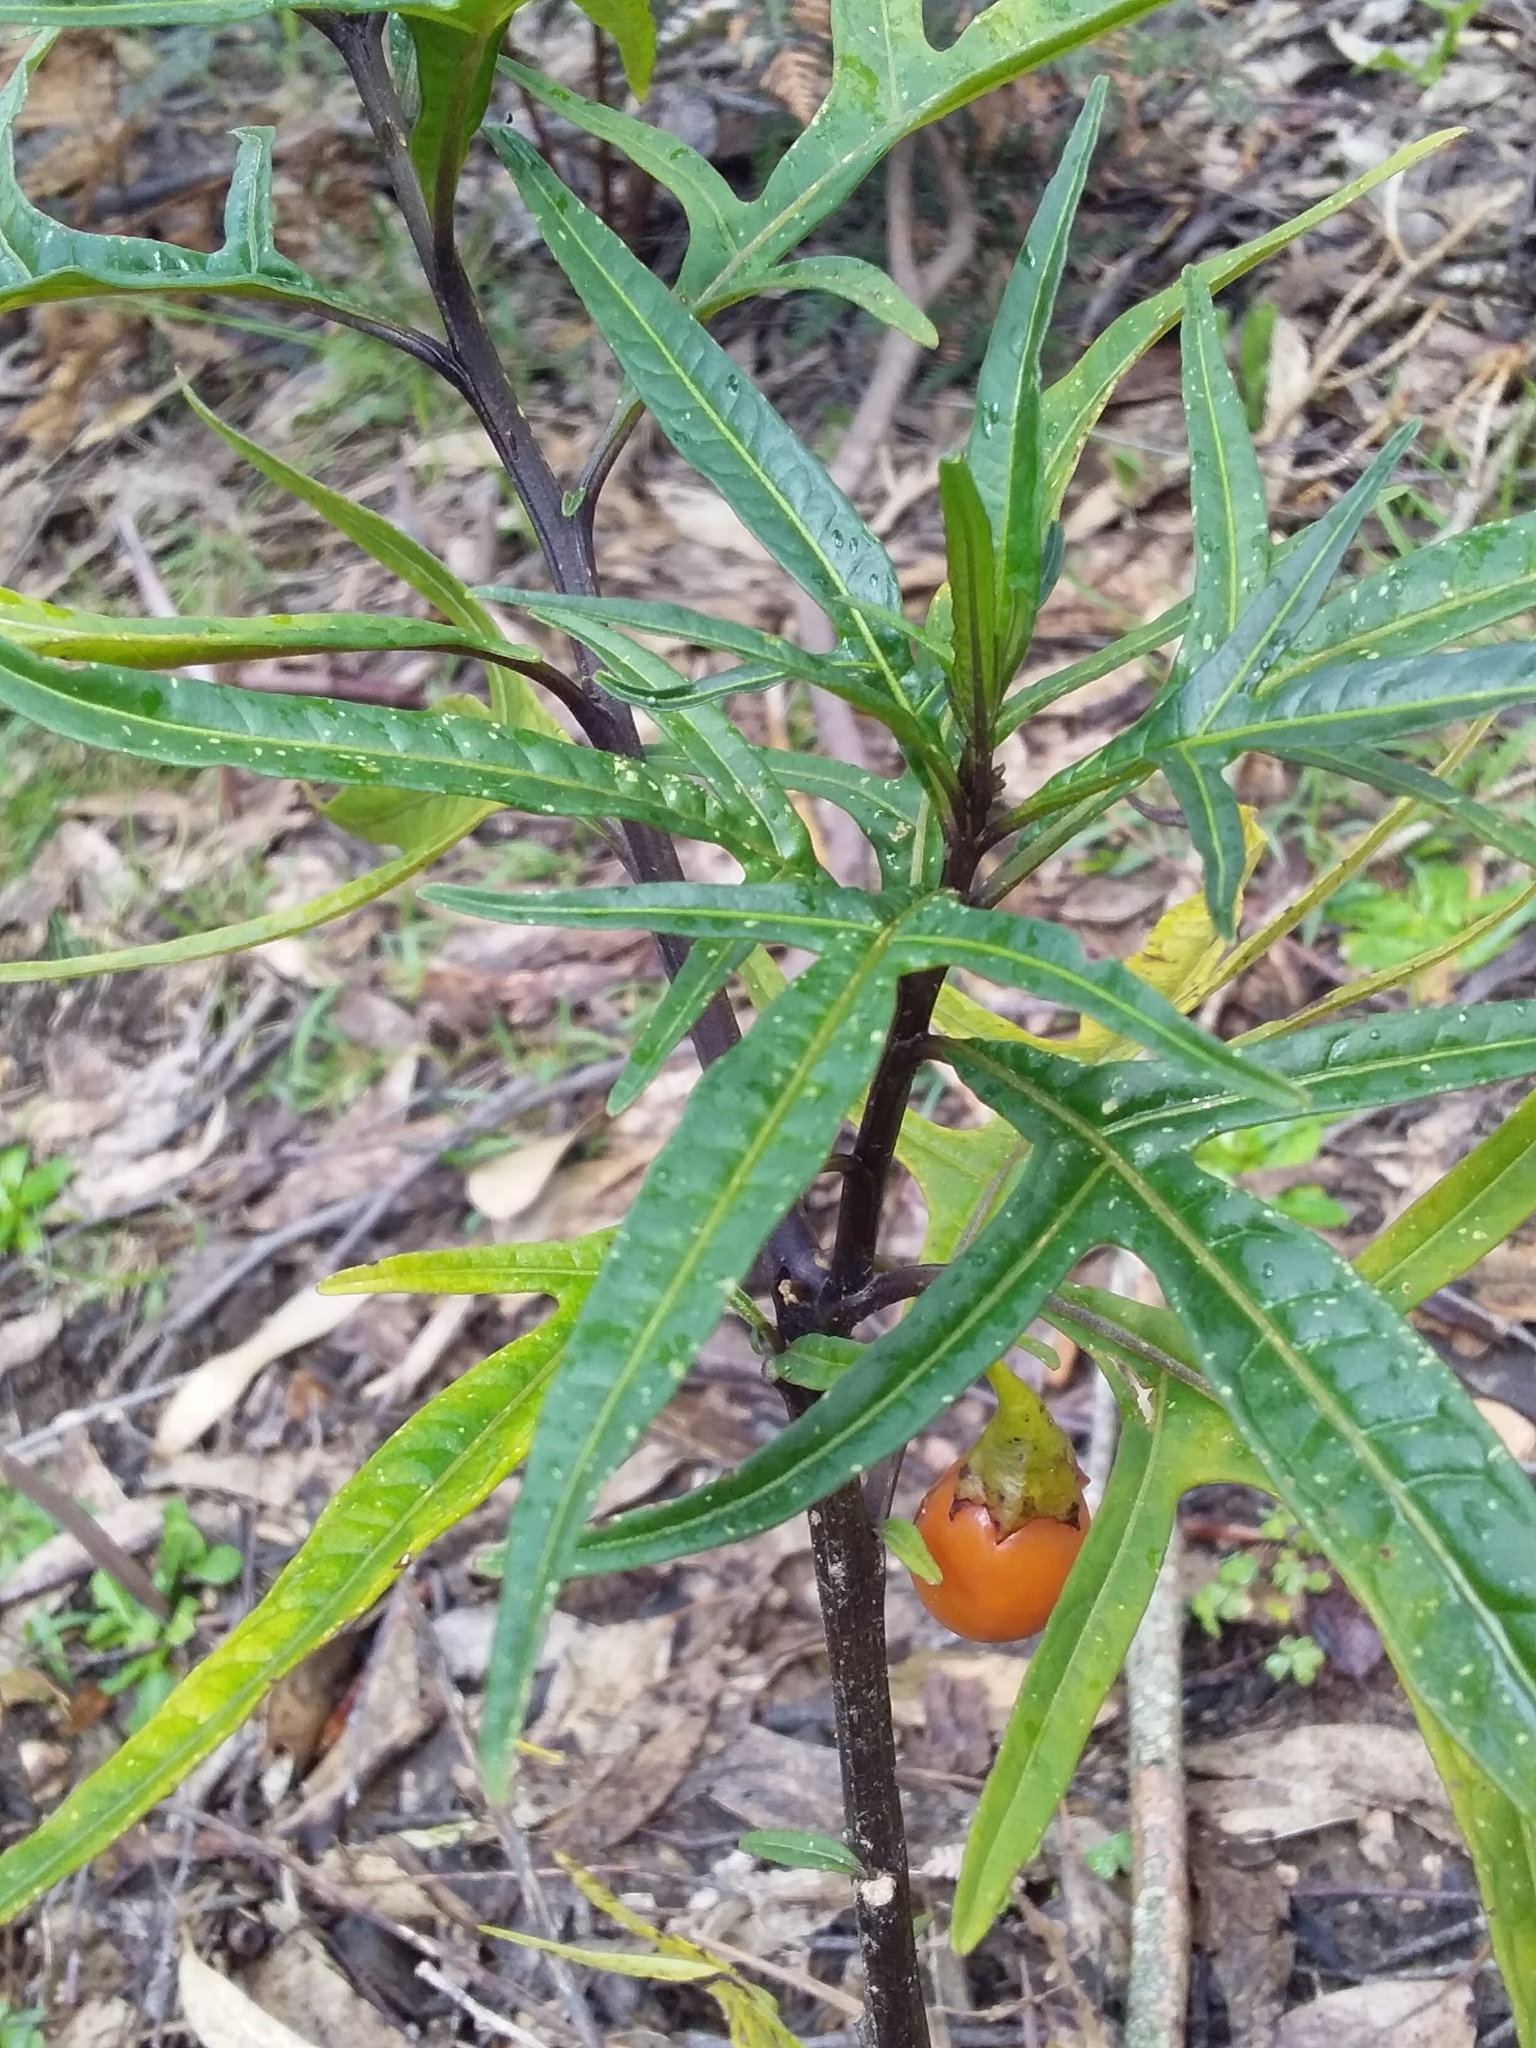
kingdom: Plantae
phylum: Tracheophyta
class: Magnoliopsida
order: Solanales
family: Solanaceae
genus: Solanum
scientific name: Solanum laciniatum
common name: Kangaroo-apple
